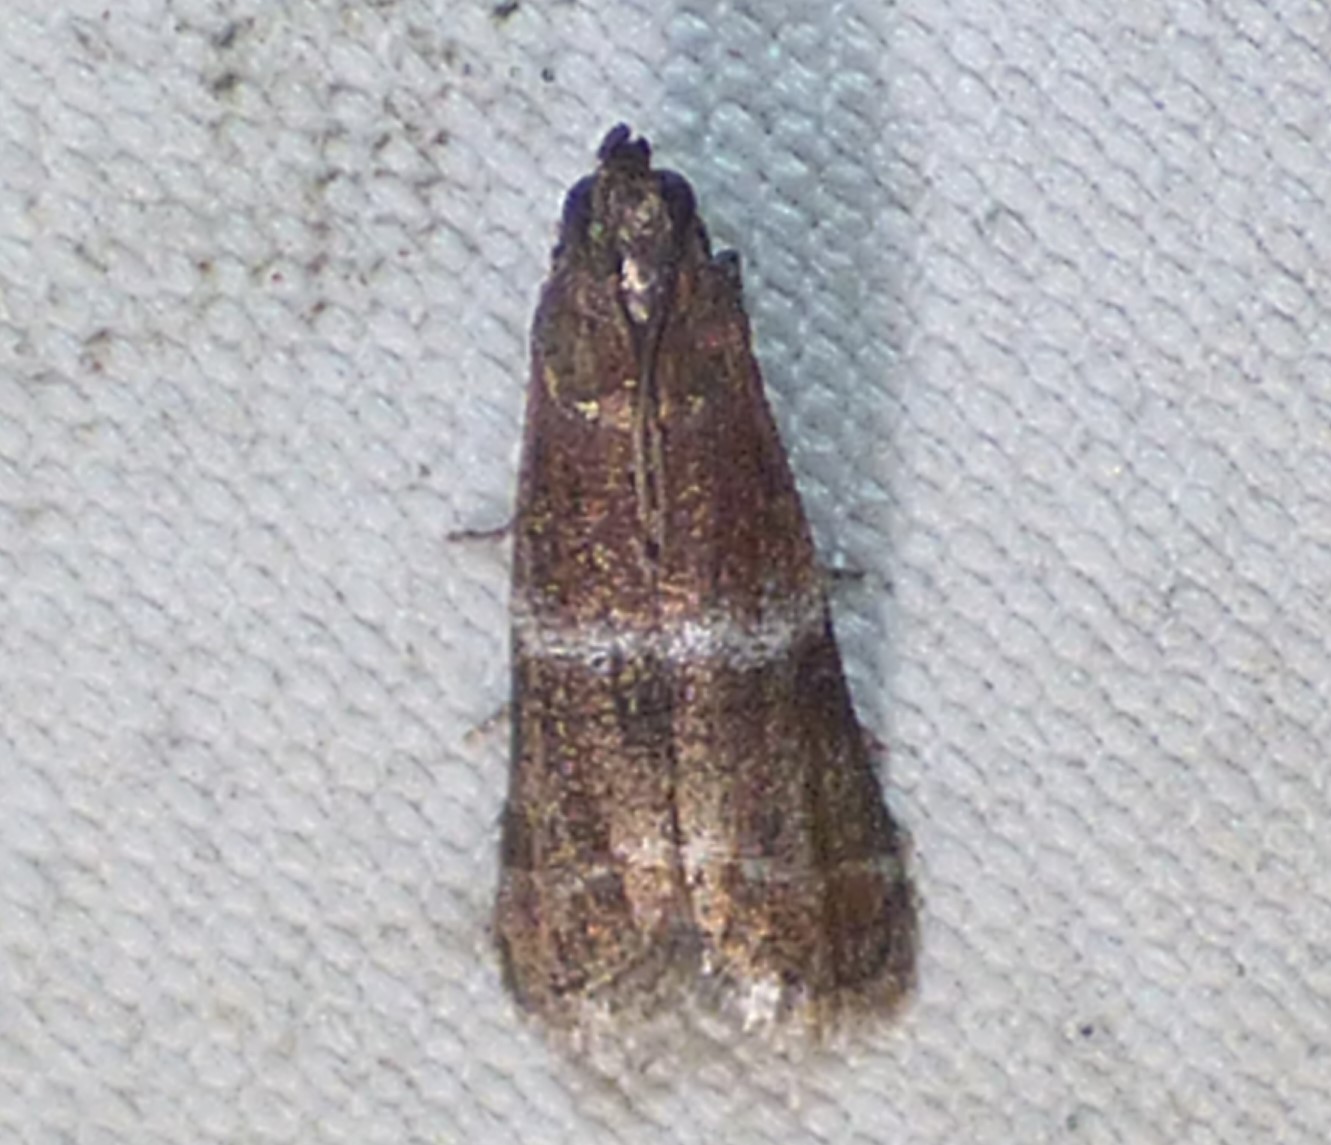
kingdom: Animalia
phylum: Arthropoda
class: Insecta
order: Lepidoptera
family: Pyralidae
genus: Moodna
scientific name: Moodna ostrinella
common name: Darker moodna moth
